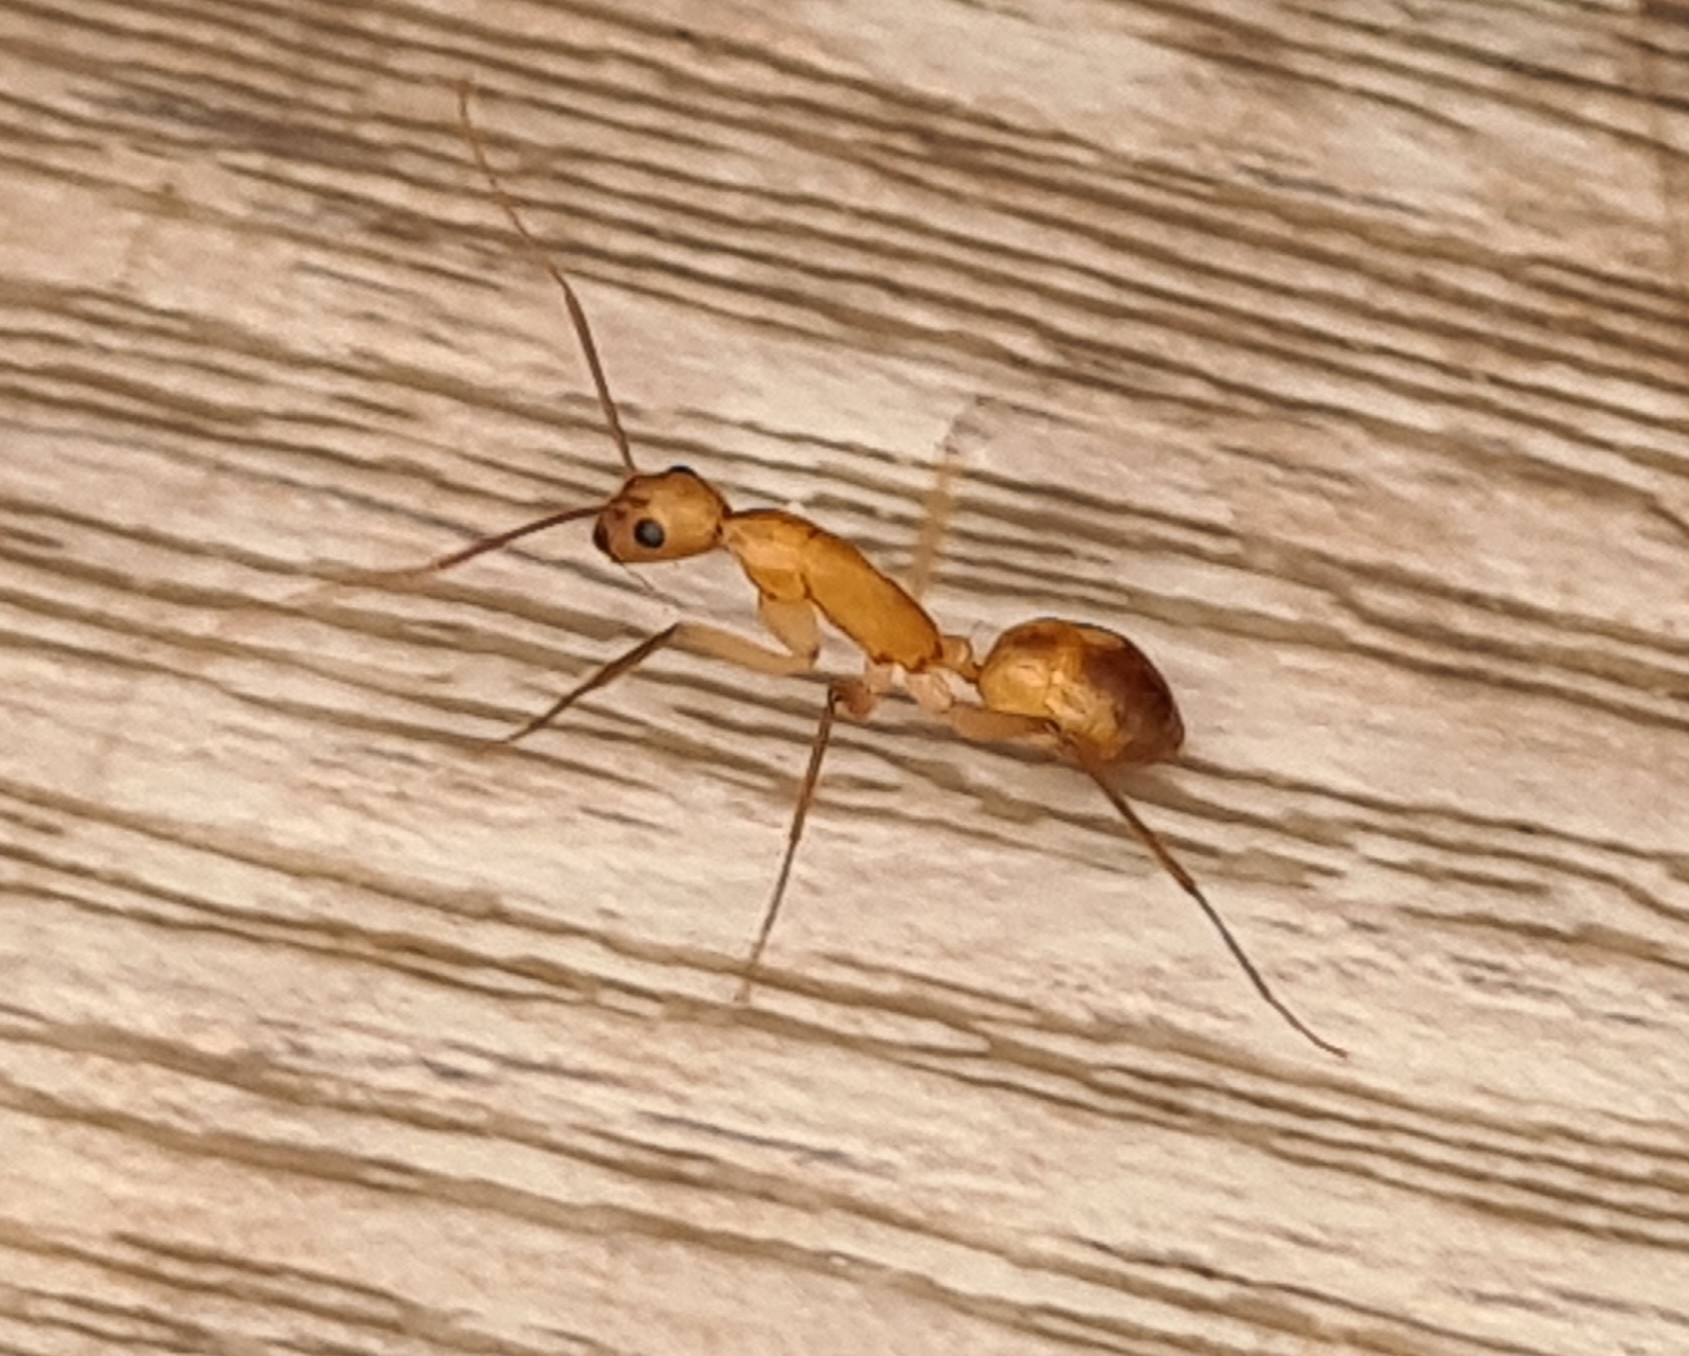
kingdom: Animalia
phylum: Arthropoda
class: Insecta
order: Hymenoptera
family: Formicidae
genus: Camponotus
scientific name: Camponotus maculatus
